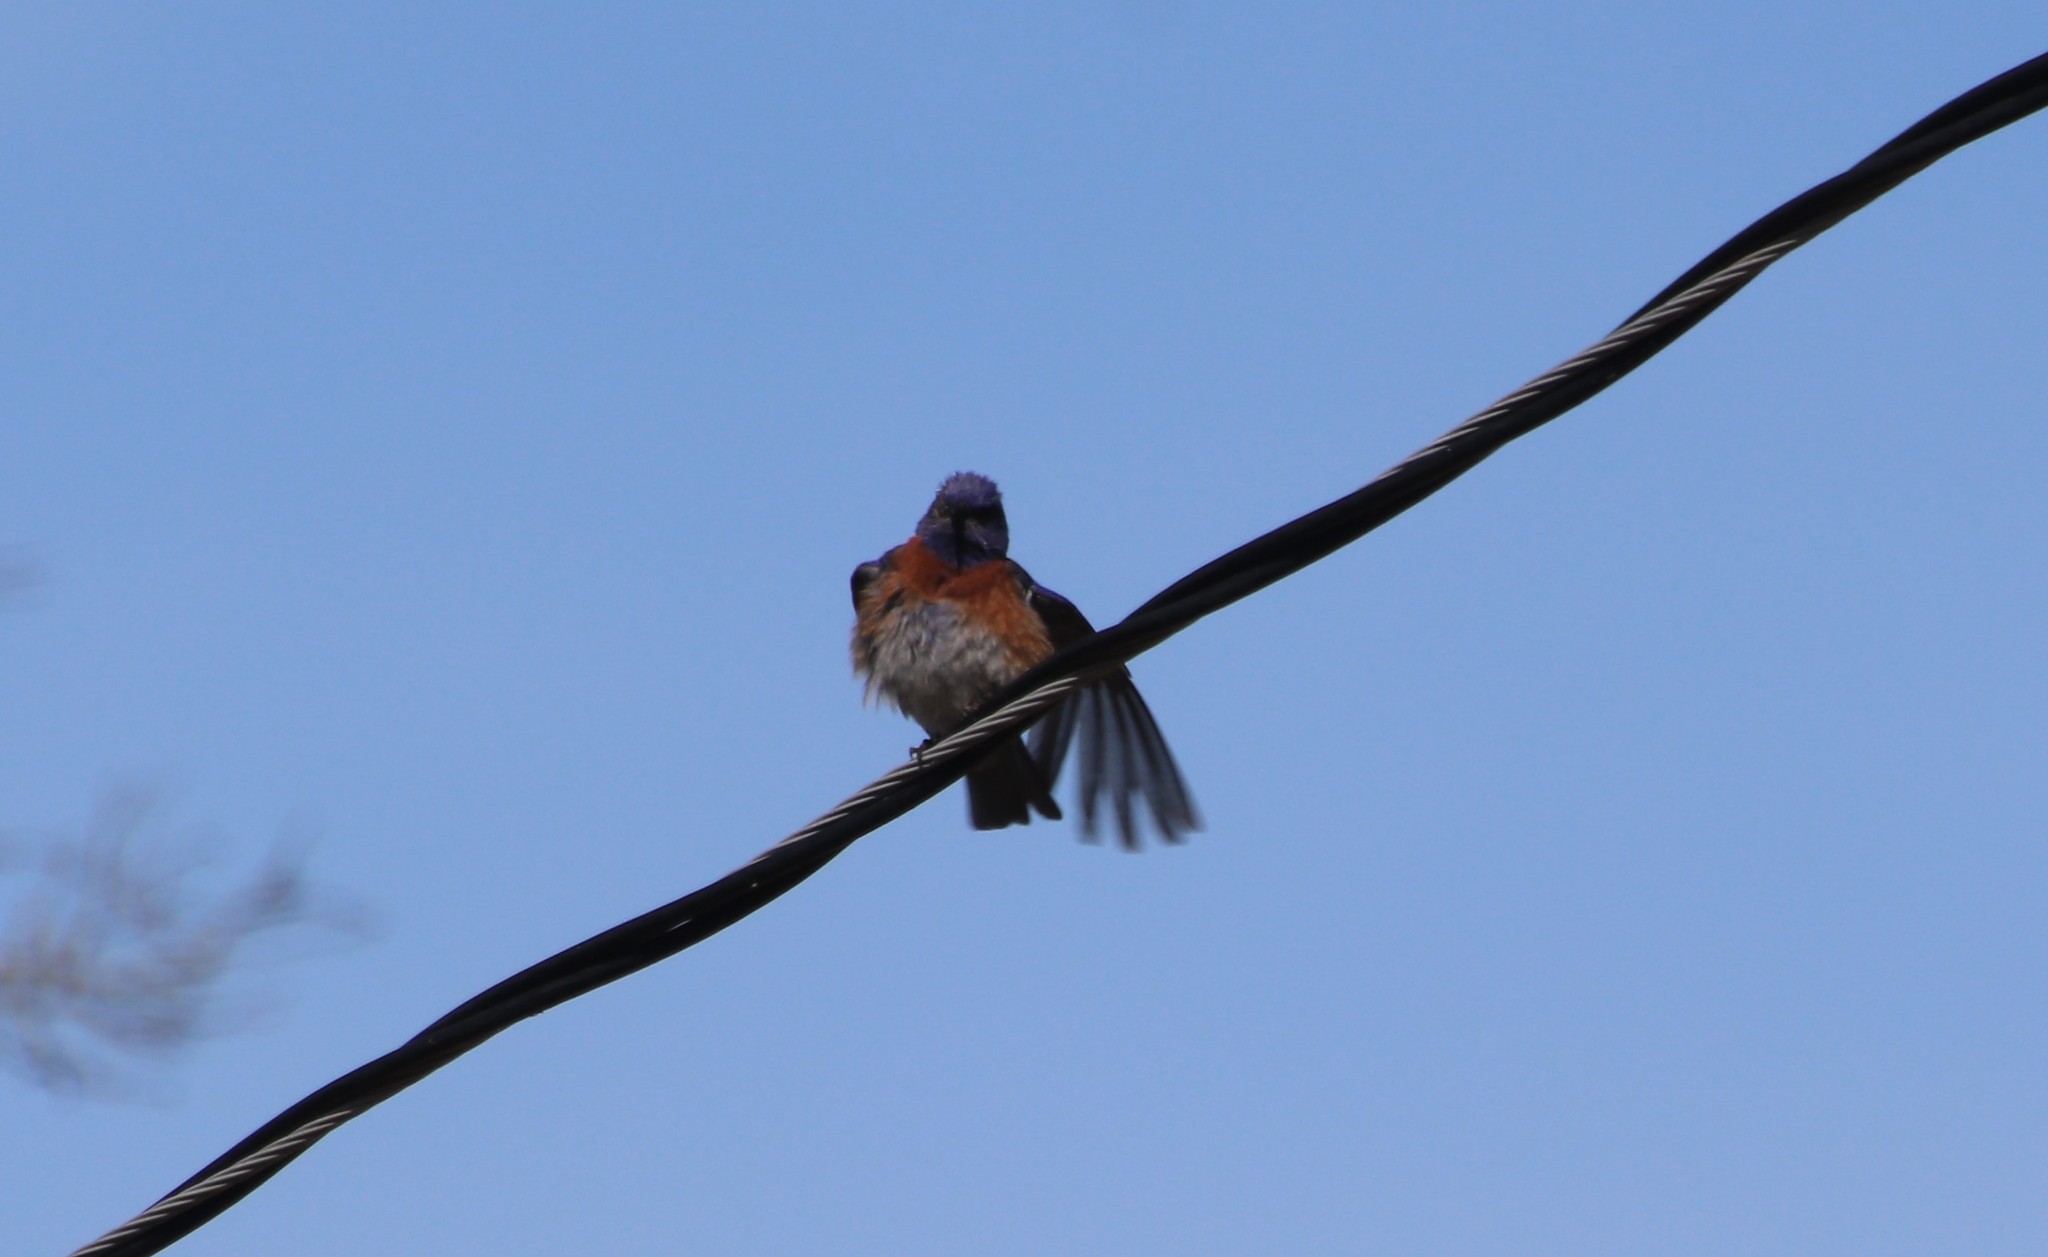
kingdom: Animalia
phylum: Chordata
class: Aves
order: Passeriformes
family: Turdidae
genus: Sialia
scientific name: Sialia mexicana
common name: Western bluebird
